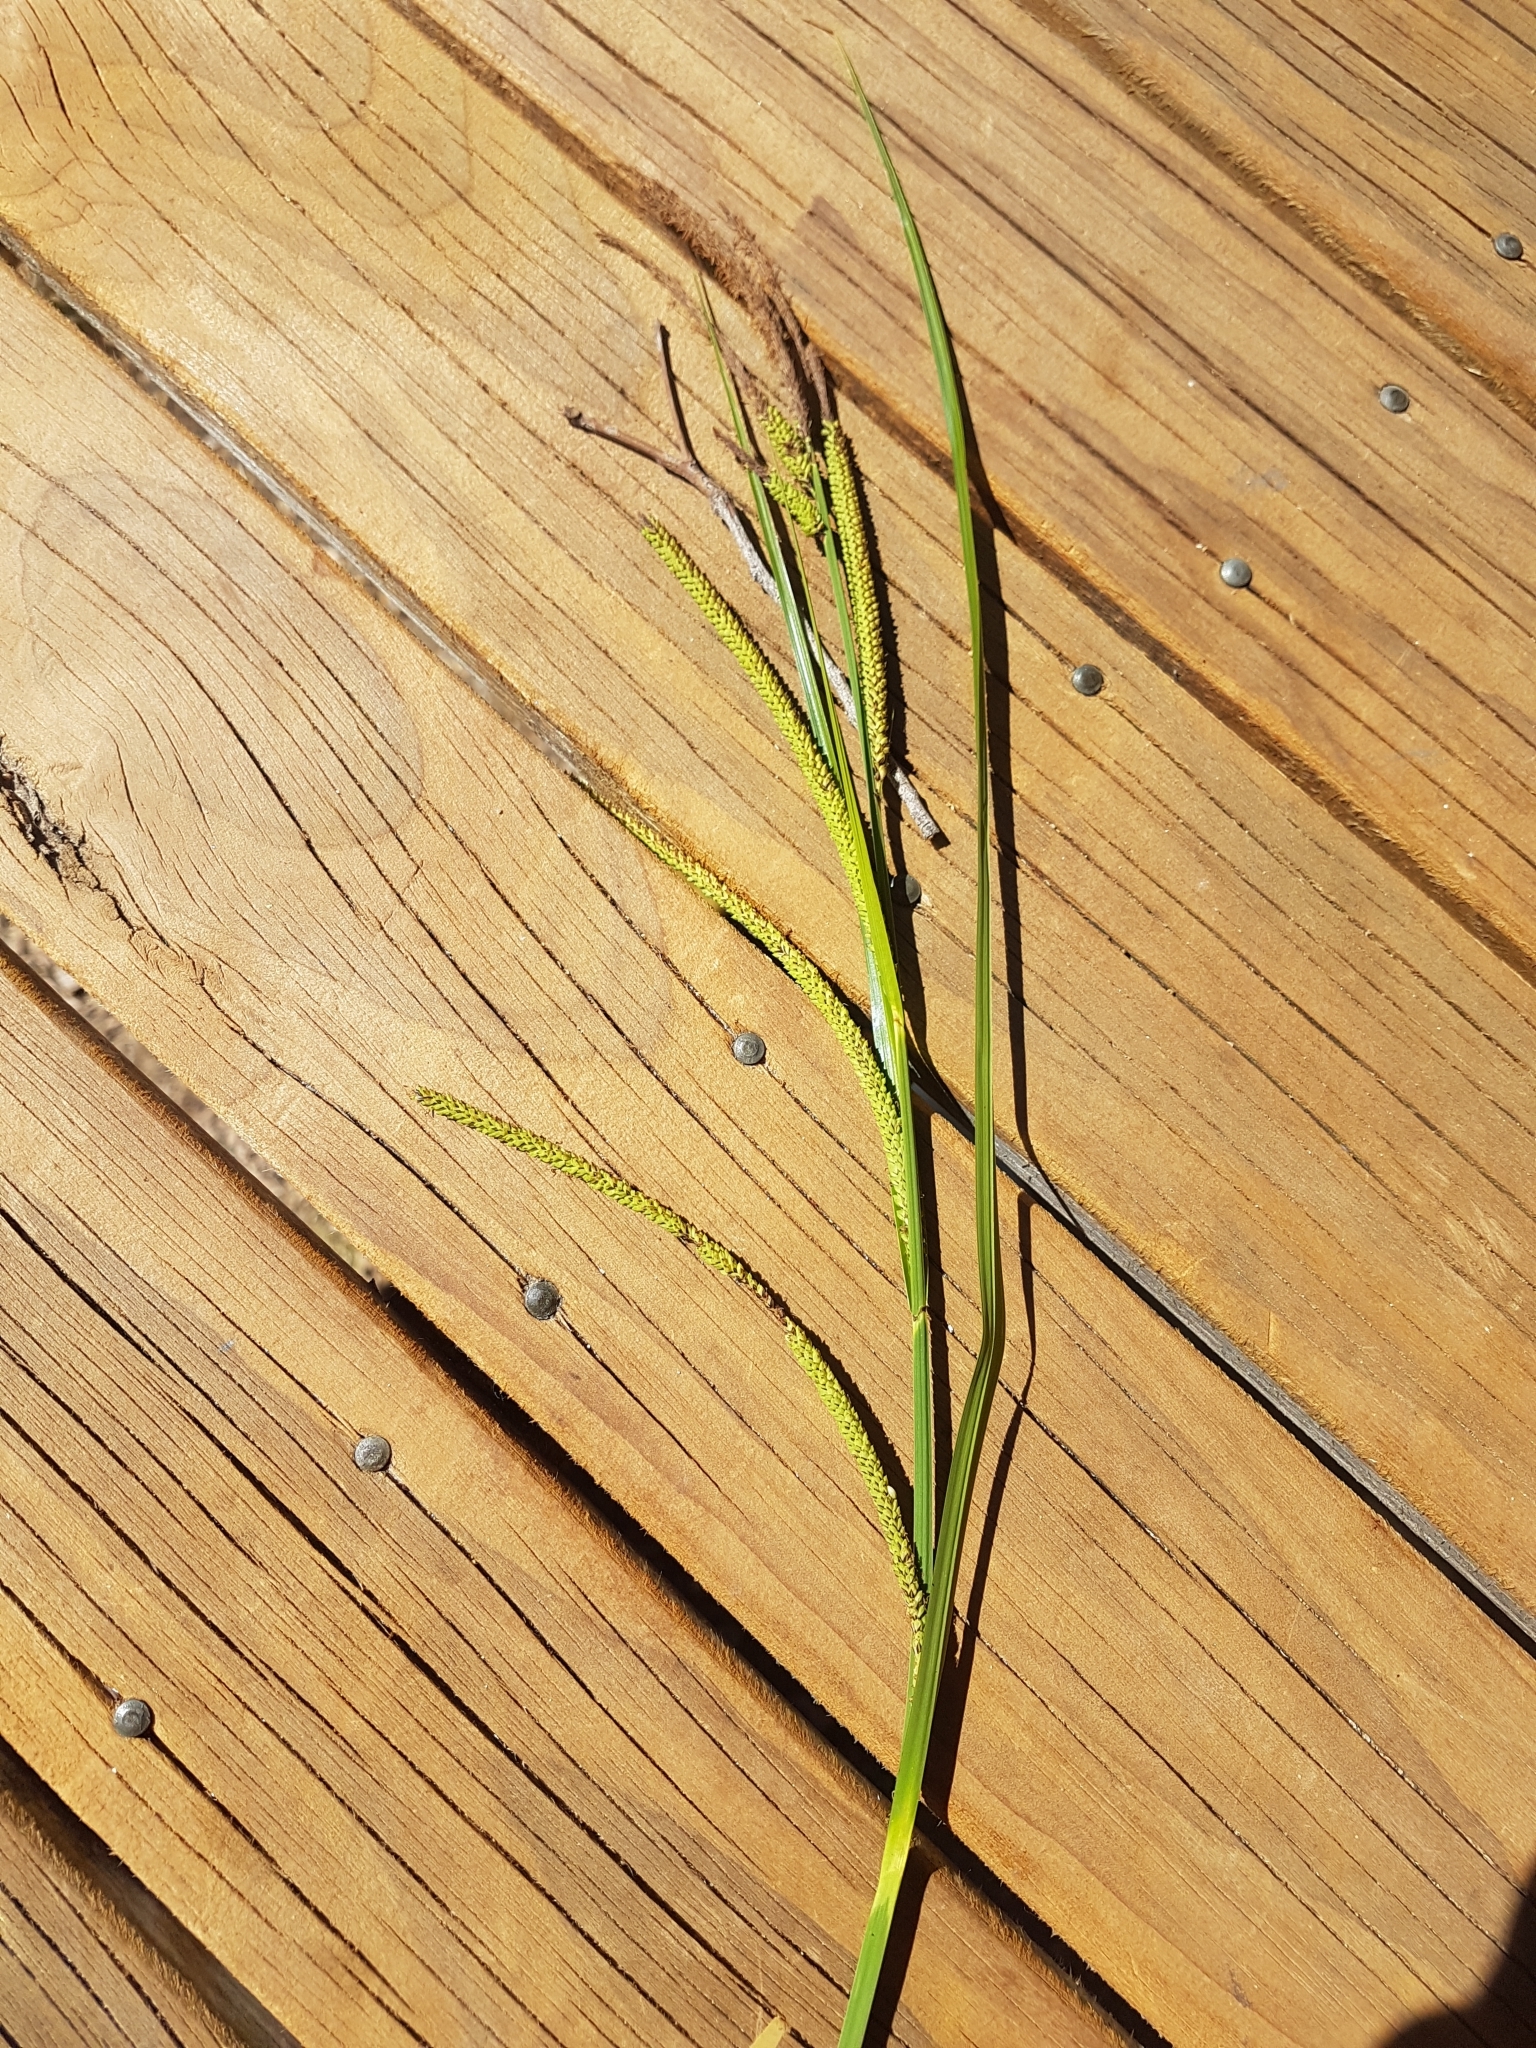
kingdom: Plantae
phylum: Tracheophyta
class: Liliopsida
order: Poales
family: Cyperaceae
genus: Carex
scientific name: Carex polyantha
